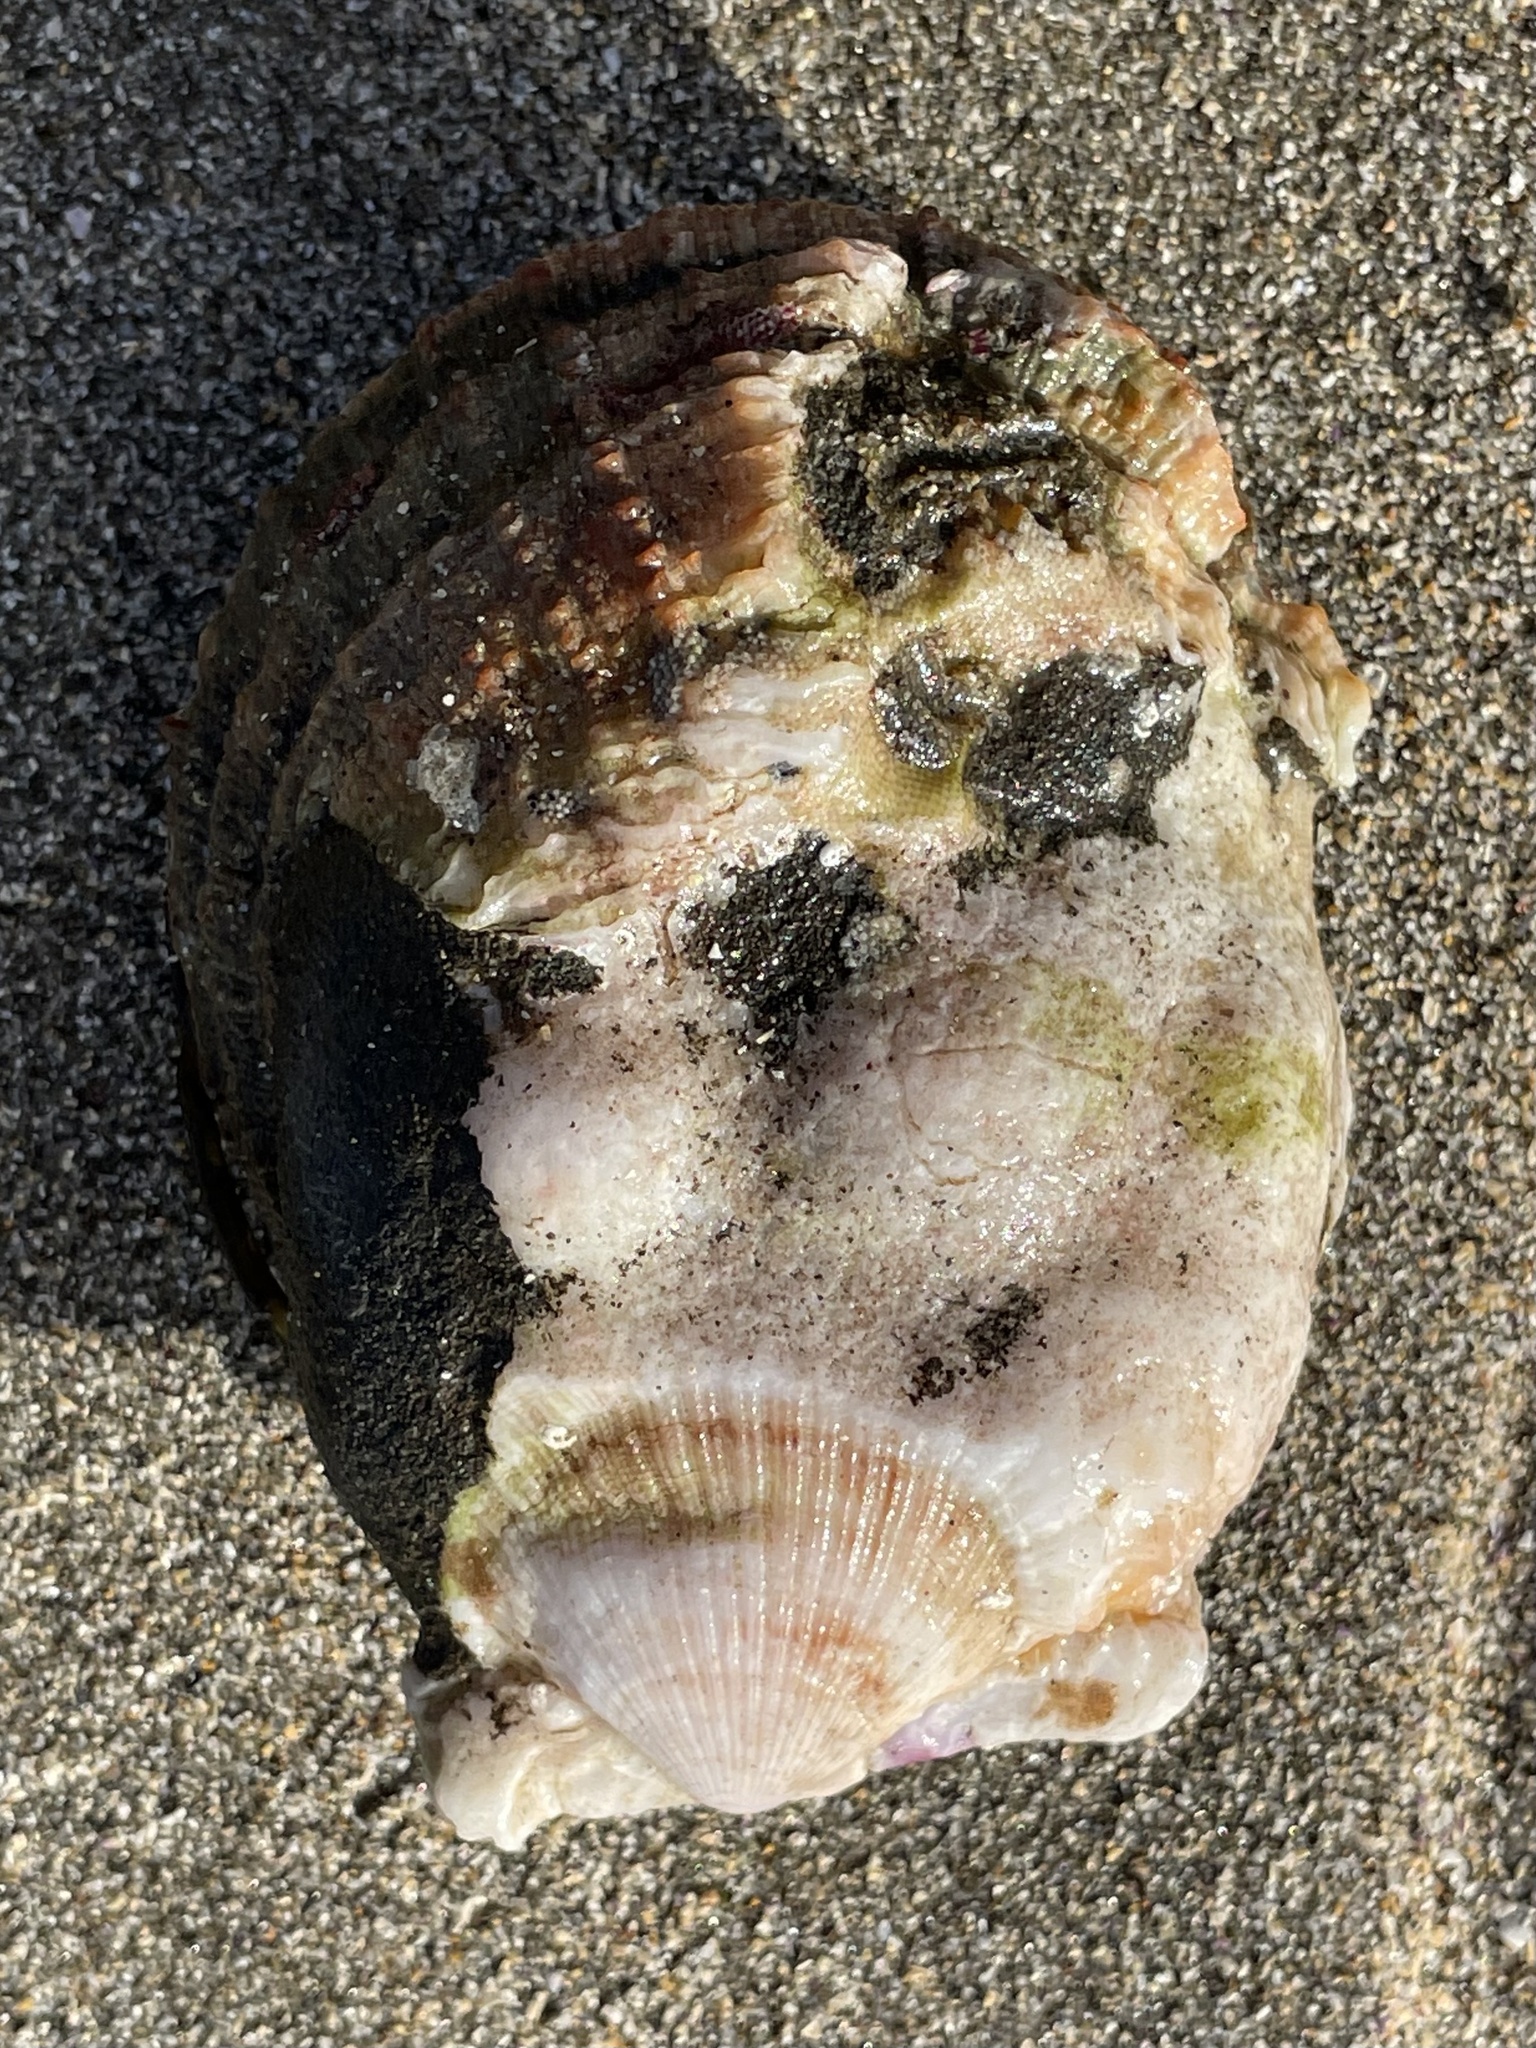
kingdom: Animalia
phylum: Mollusca
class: Bivalvia
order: Pectinida
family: Pectinidae
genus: Crassadoma
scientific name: Crassadoma gigantea
